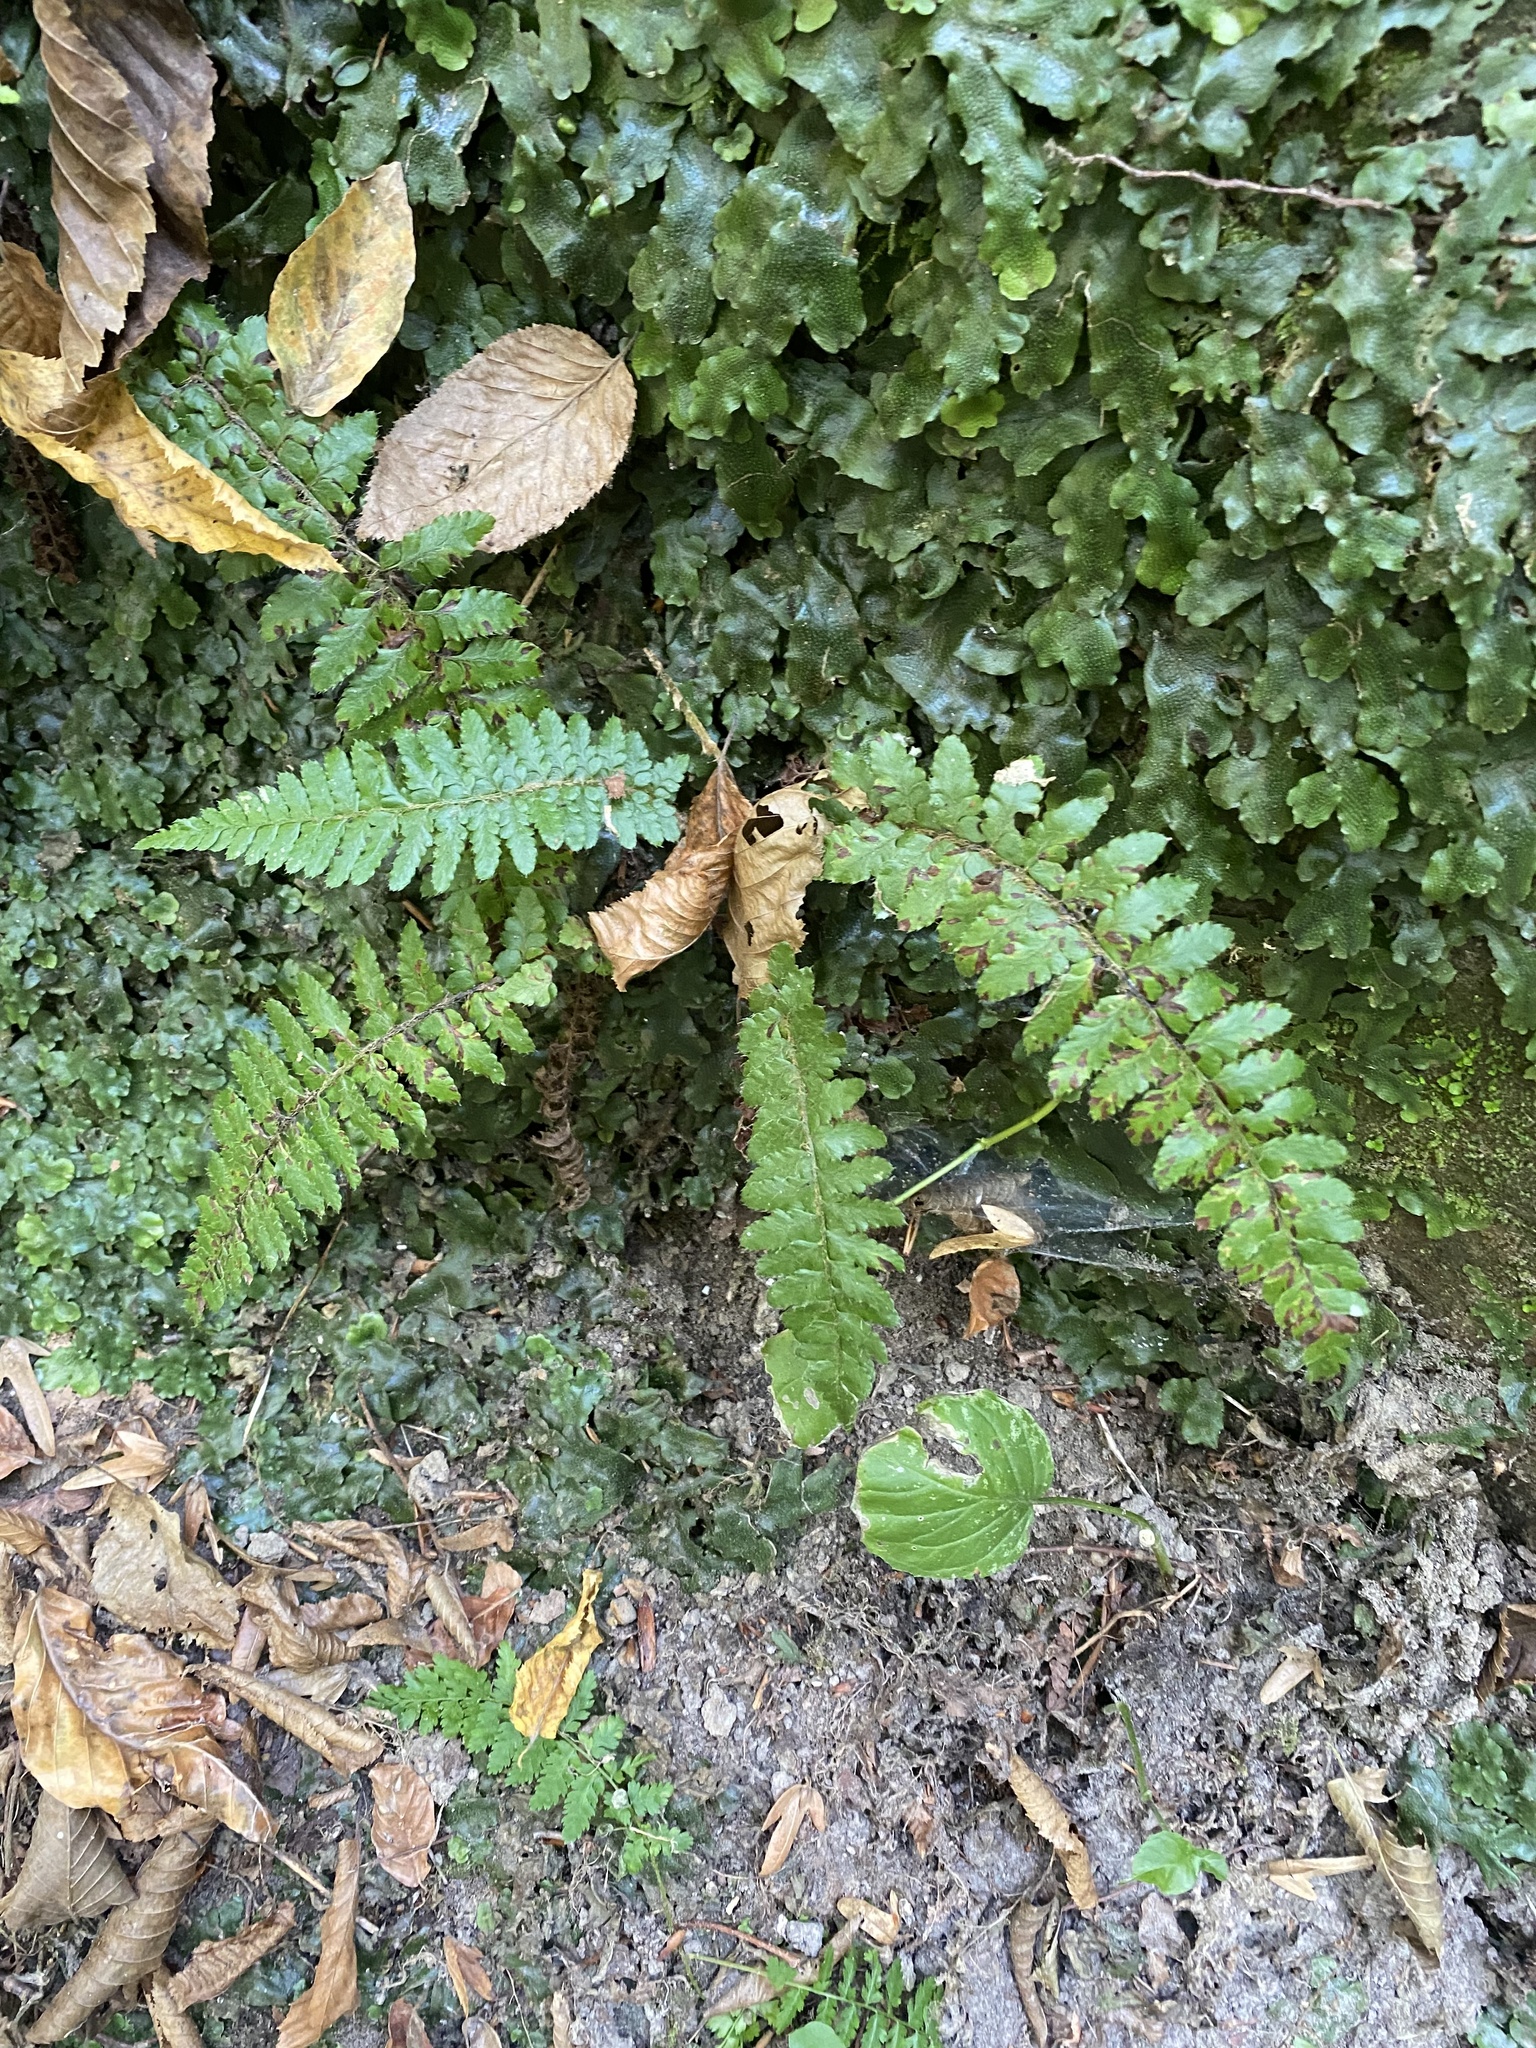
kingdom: Plantae
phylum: Tracheophyta
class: Polypodiopsida
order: Polypodiales
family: Dryopteridaceae
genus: Polystichum
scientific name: Polystichum braunii
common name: Braun's holly fern
